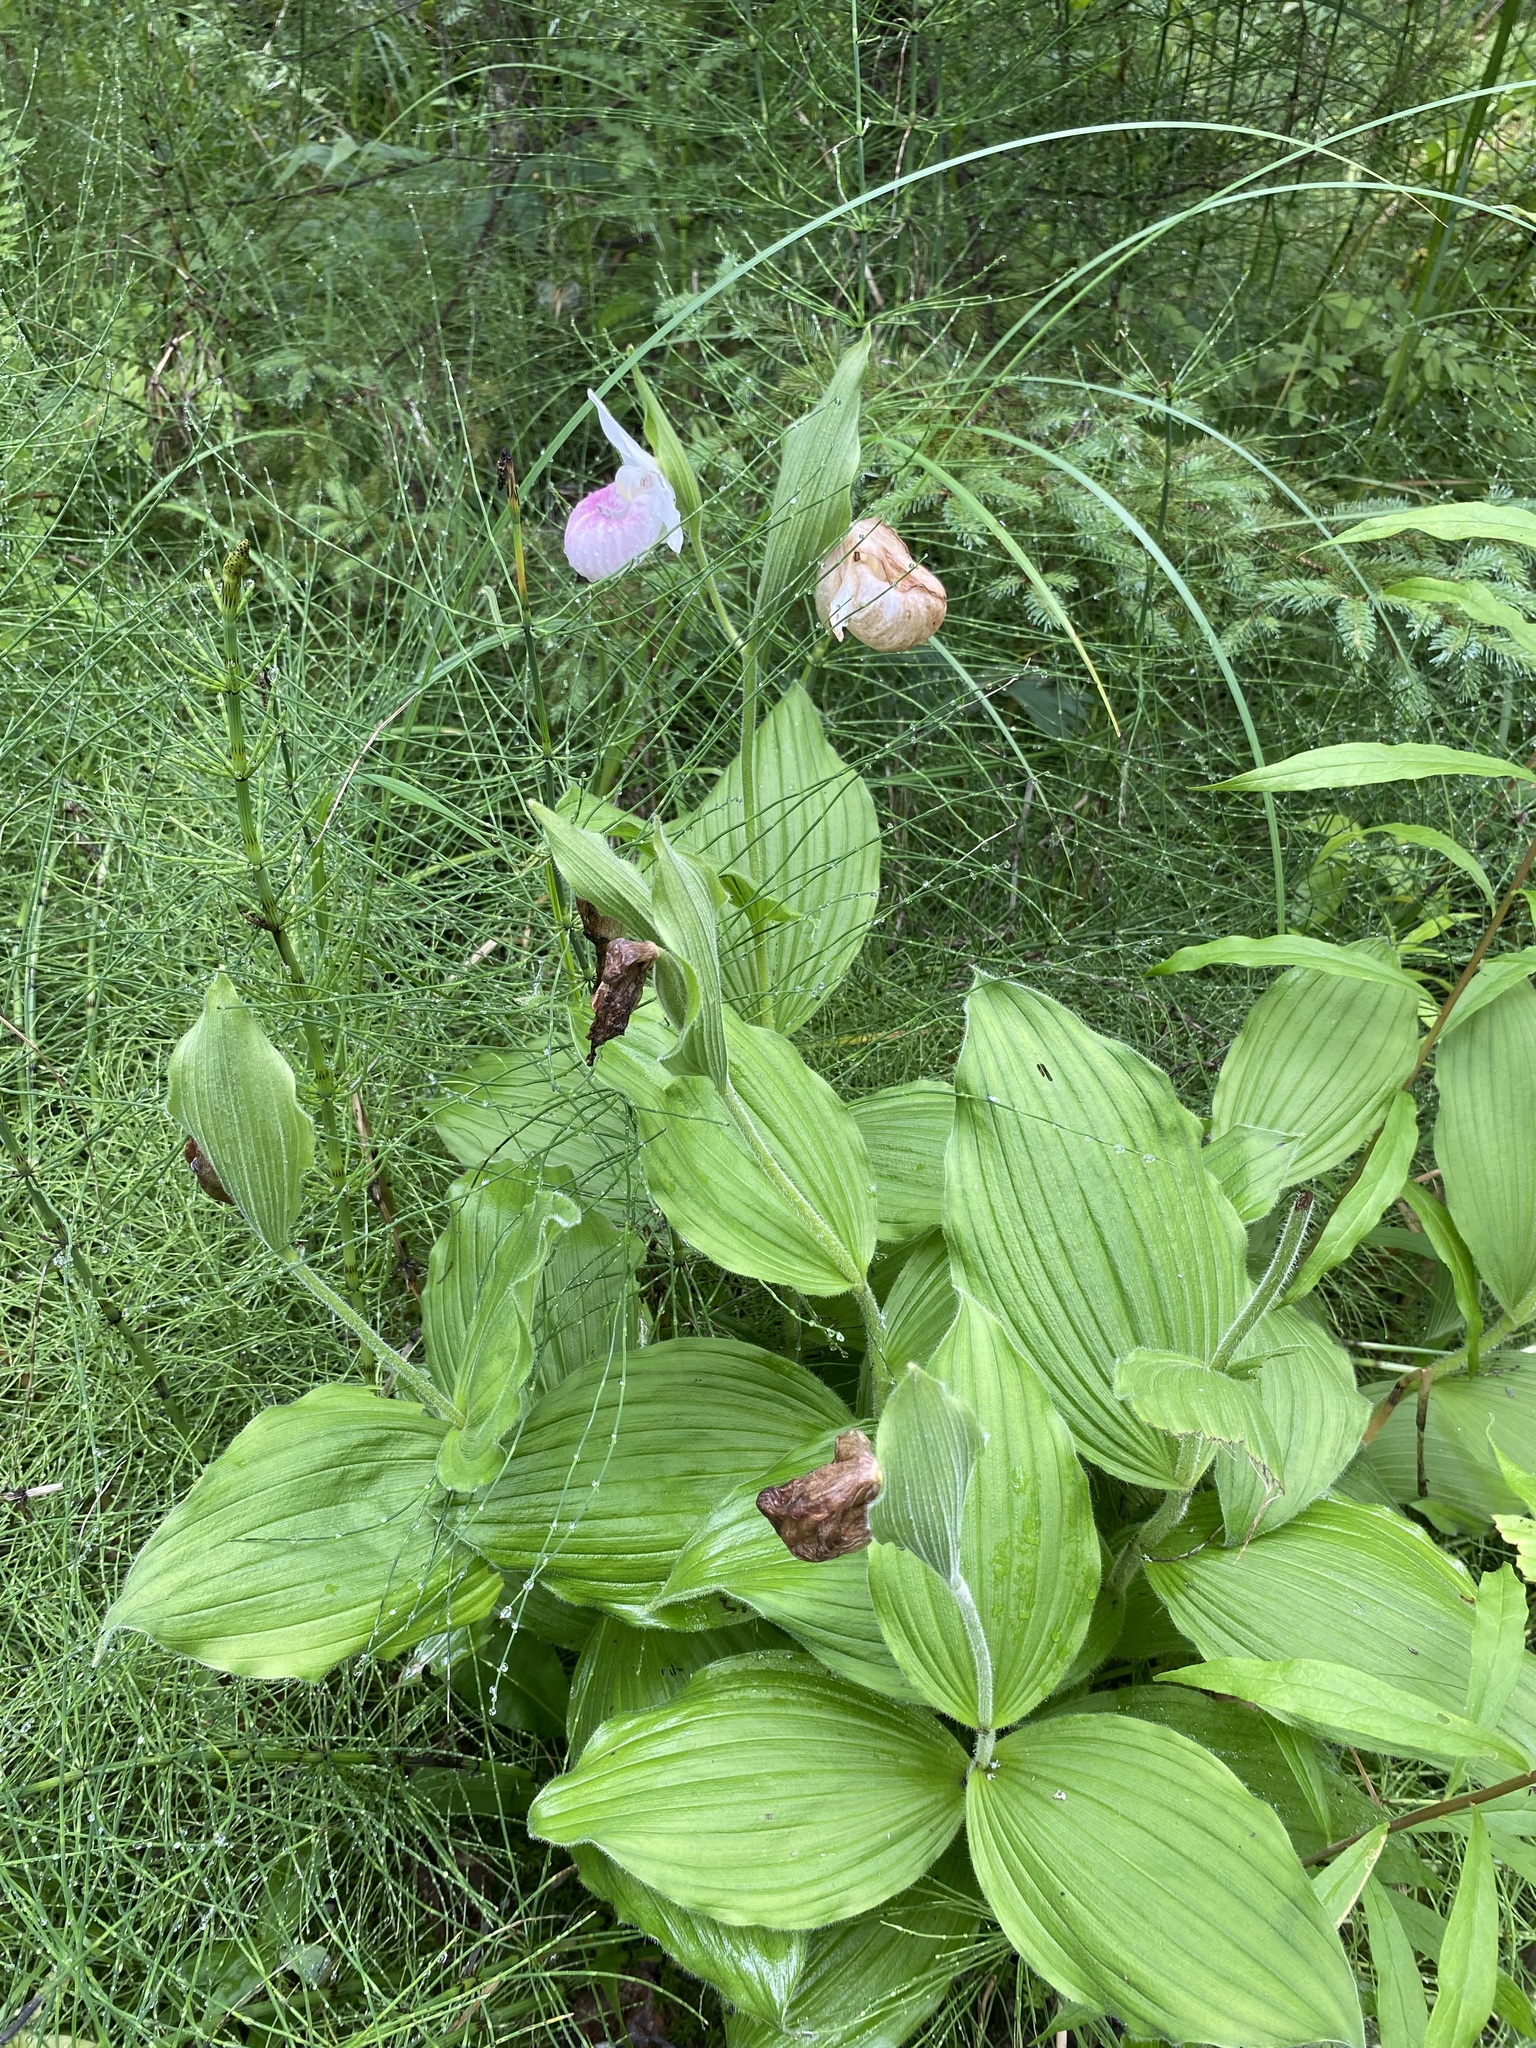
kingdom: Plantae
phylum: Tracheophyta
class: Liliopsida
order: Asparagales
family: Orchidaceae
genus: Cypripedium
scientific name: Cypripedium reginae
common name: Queen lady's-slipper
